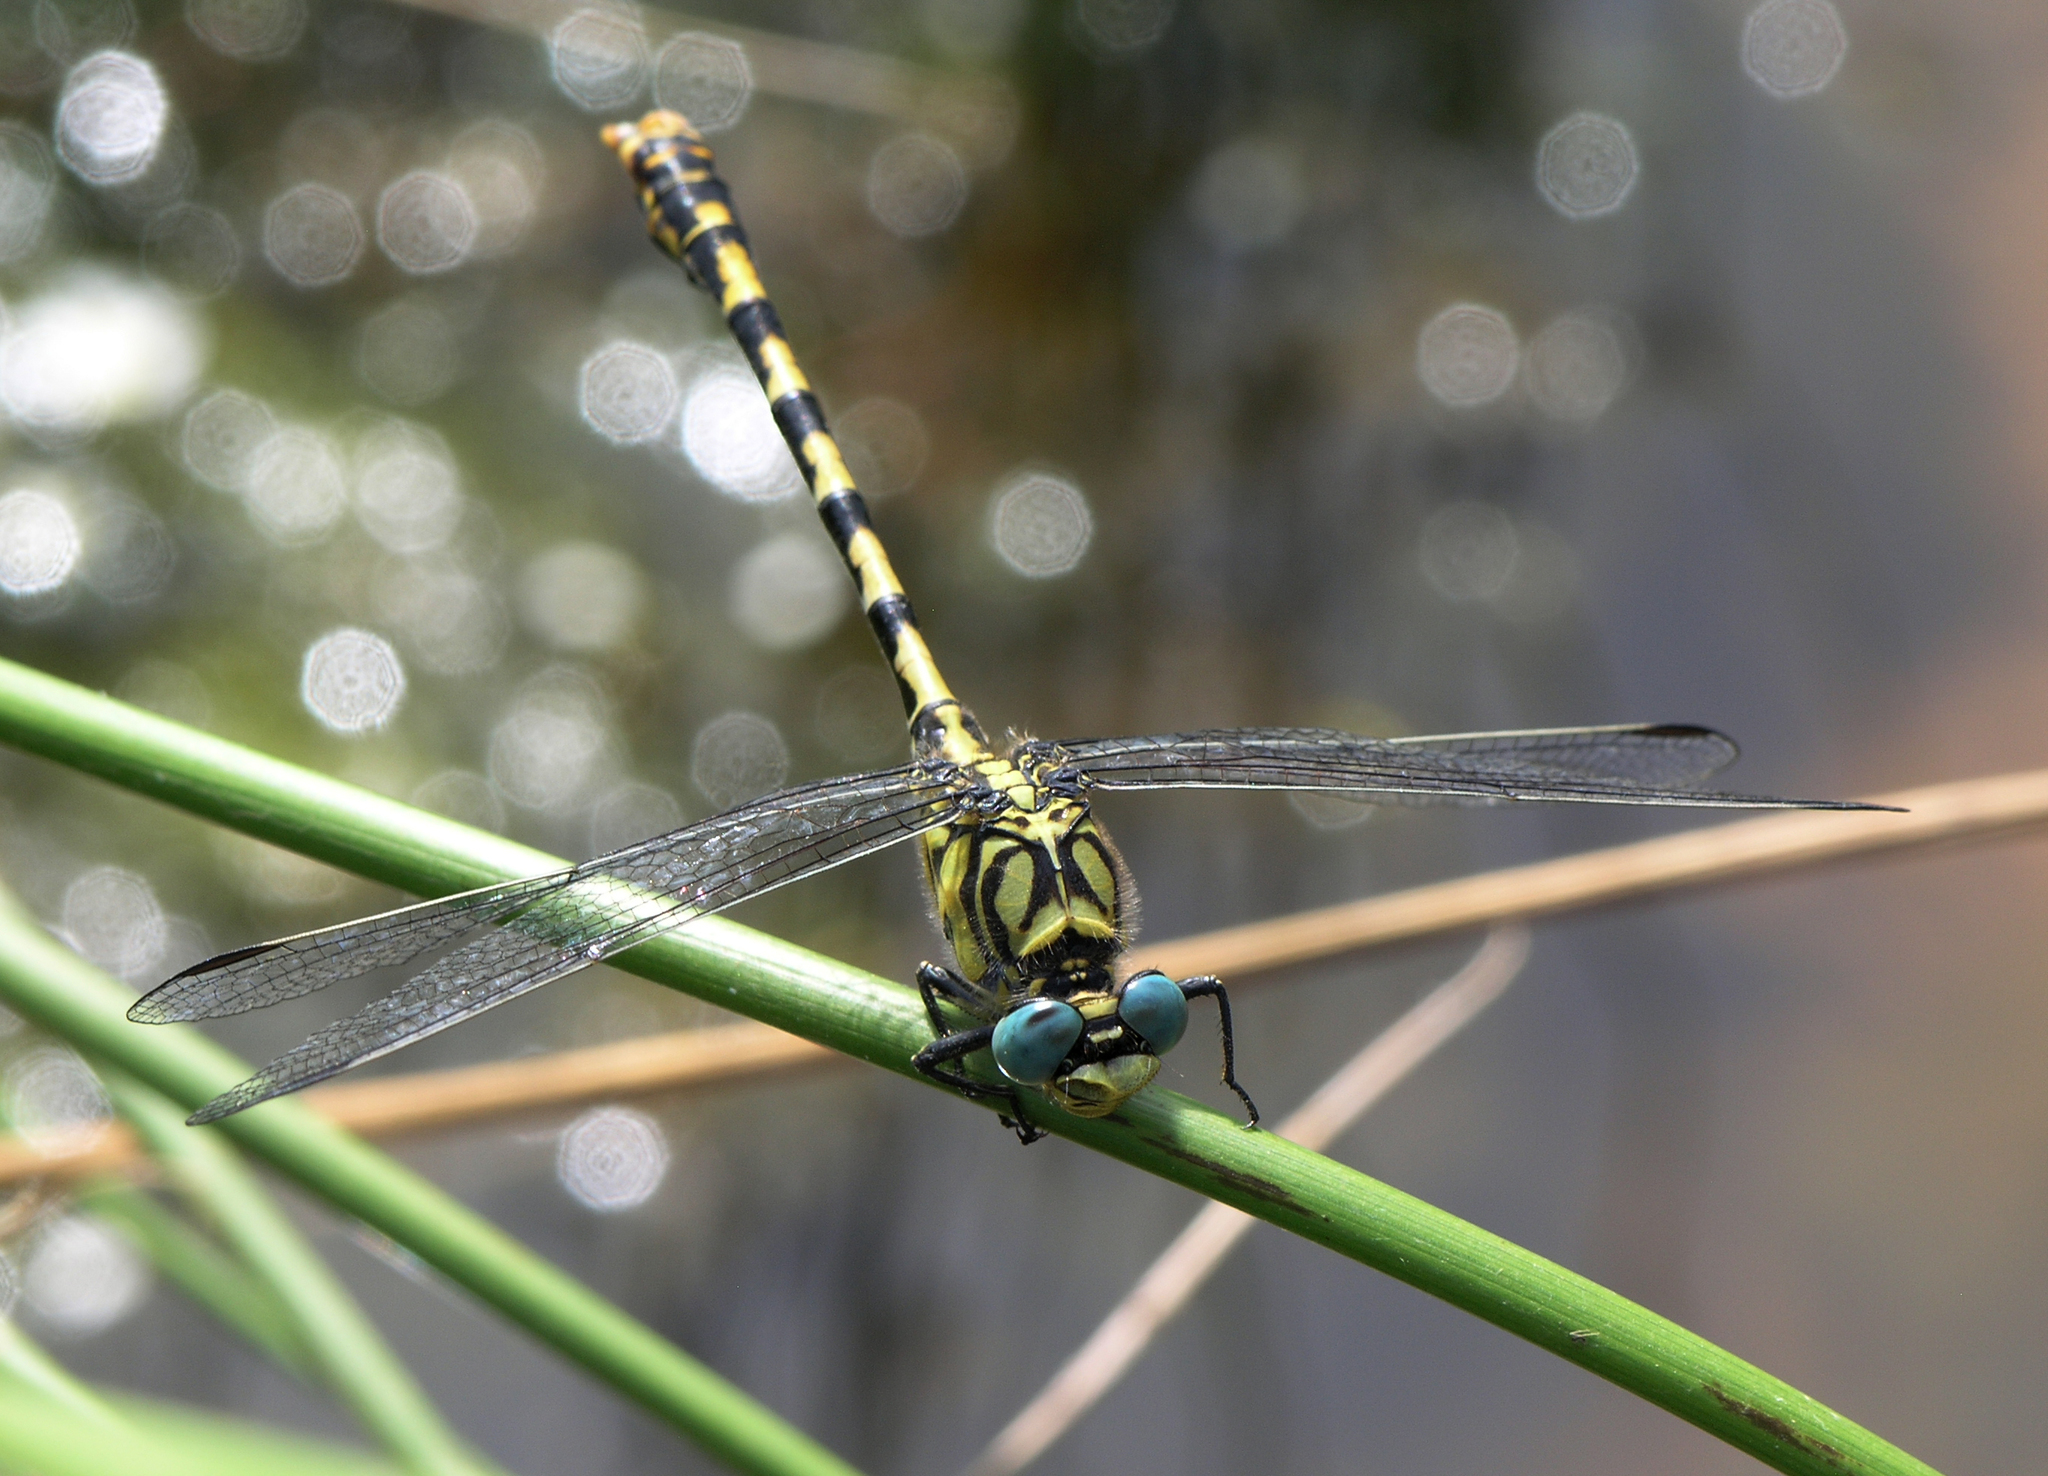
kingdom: Animalia
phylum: Arthropoda
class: Insecta
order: Odonata
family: Gomphidae
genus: Onychogomphus
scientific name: Onychogomphus forcipatus
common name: Small pincertail
